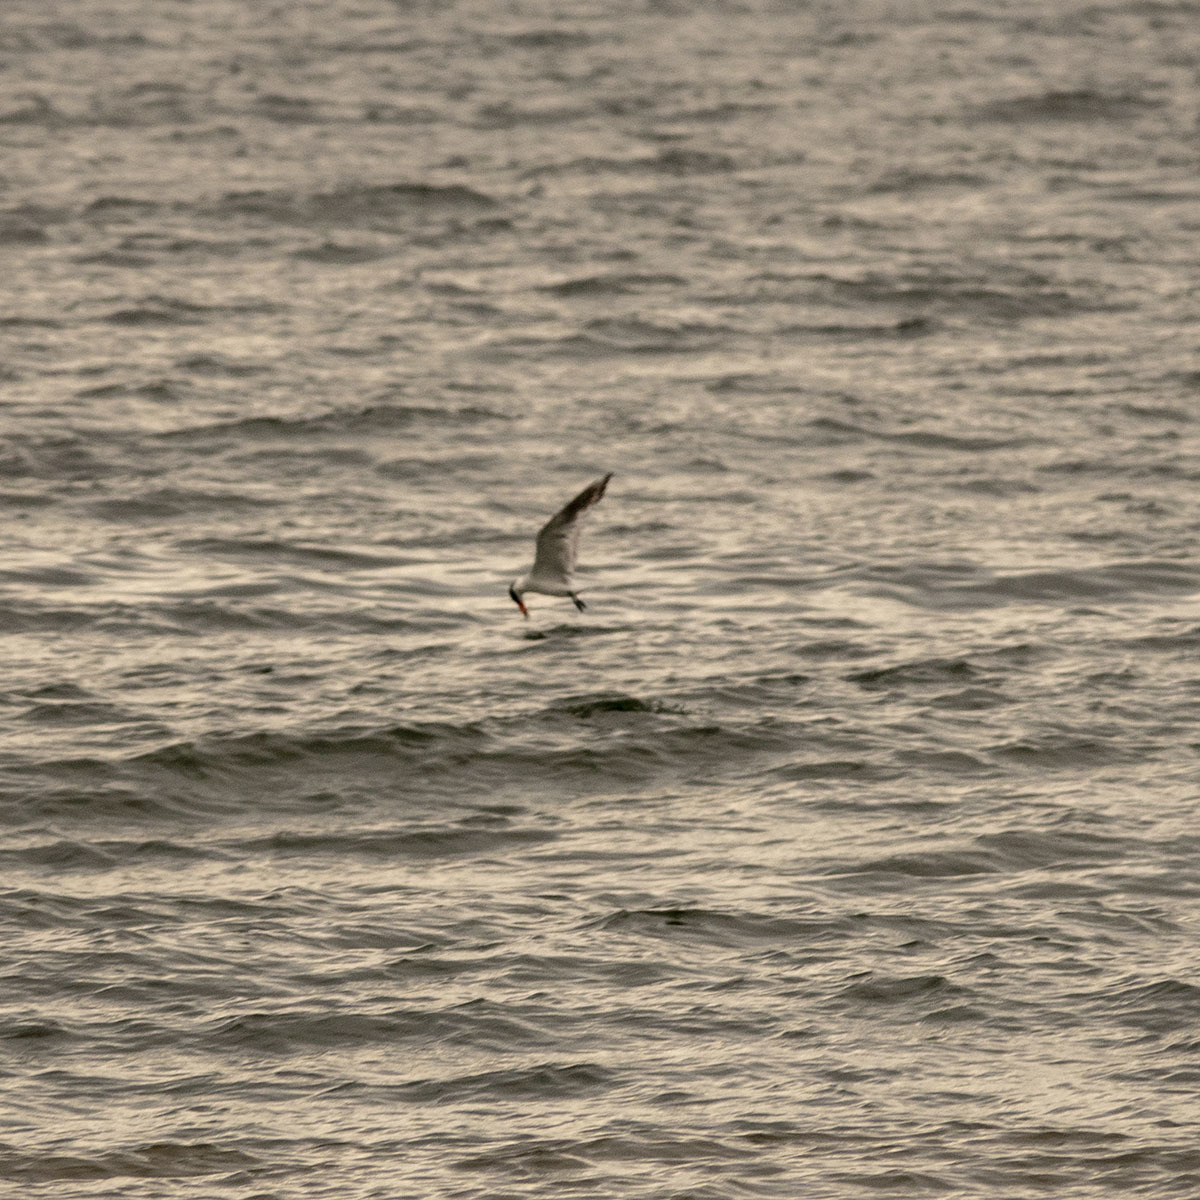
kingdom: Animalia
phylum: Chordata
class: Aves
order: Charadriiformes
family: Laridae
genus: Hydroprogne
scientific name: Hydroprogne caspia
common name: Caspian tern
